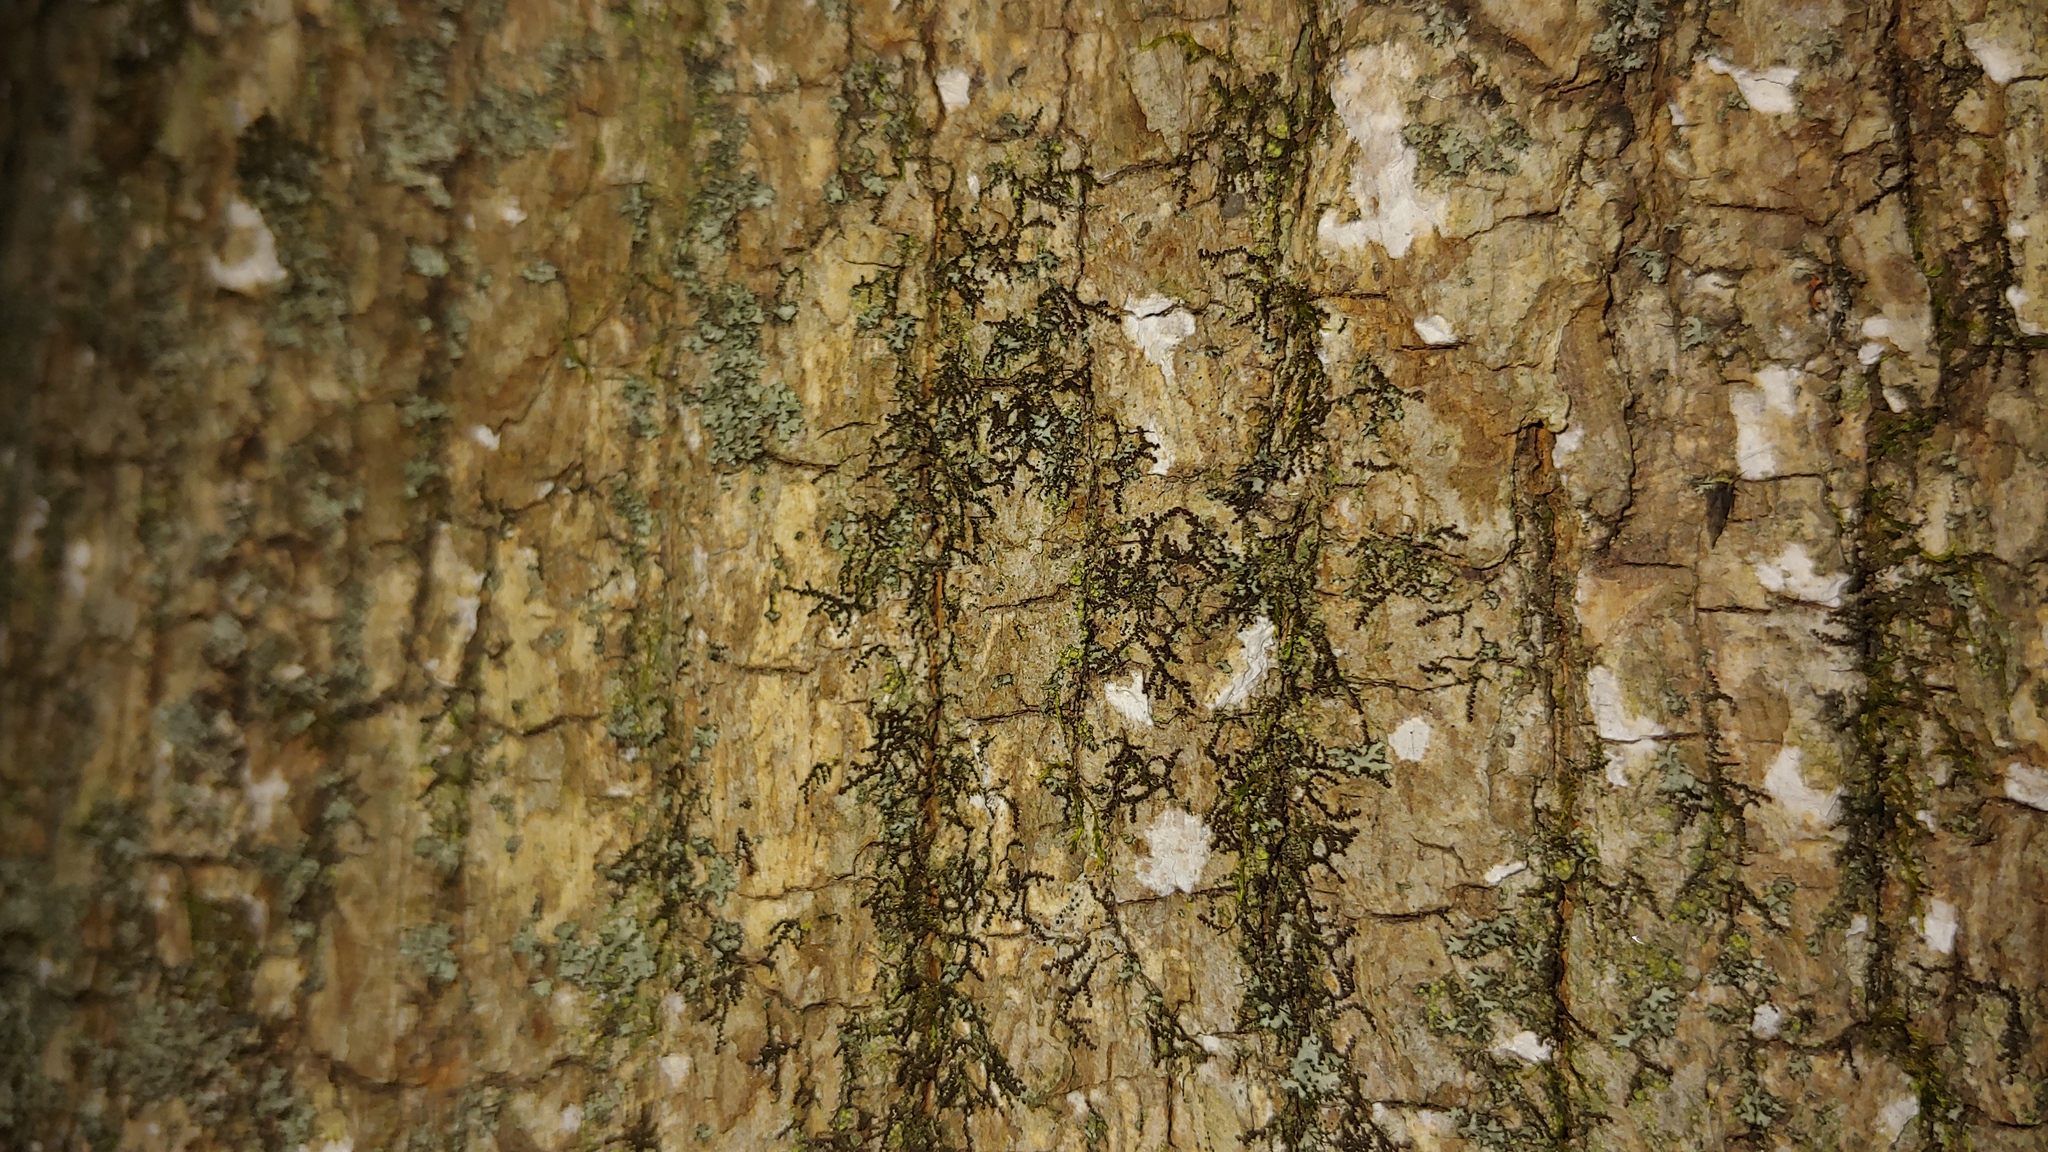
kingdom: Plantae
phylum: Marchantiophyta
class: Jungermanniopsida
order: Porellales
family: Frullaniaceae
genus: Frullania
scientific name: Frullania eboracensis
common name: New york scalewort
